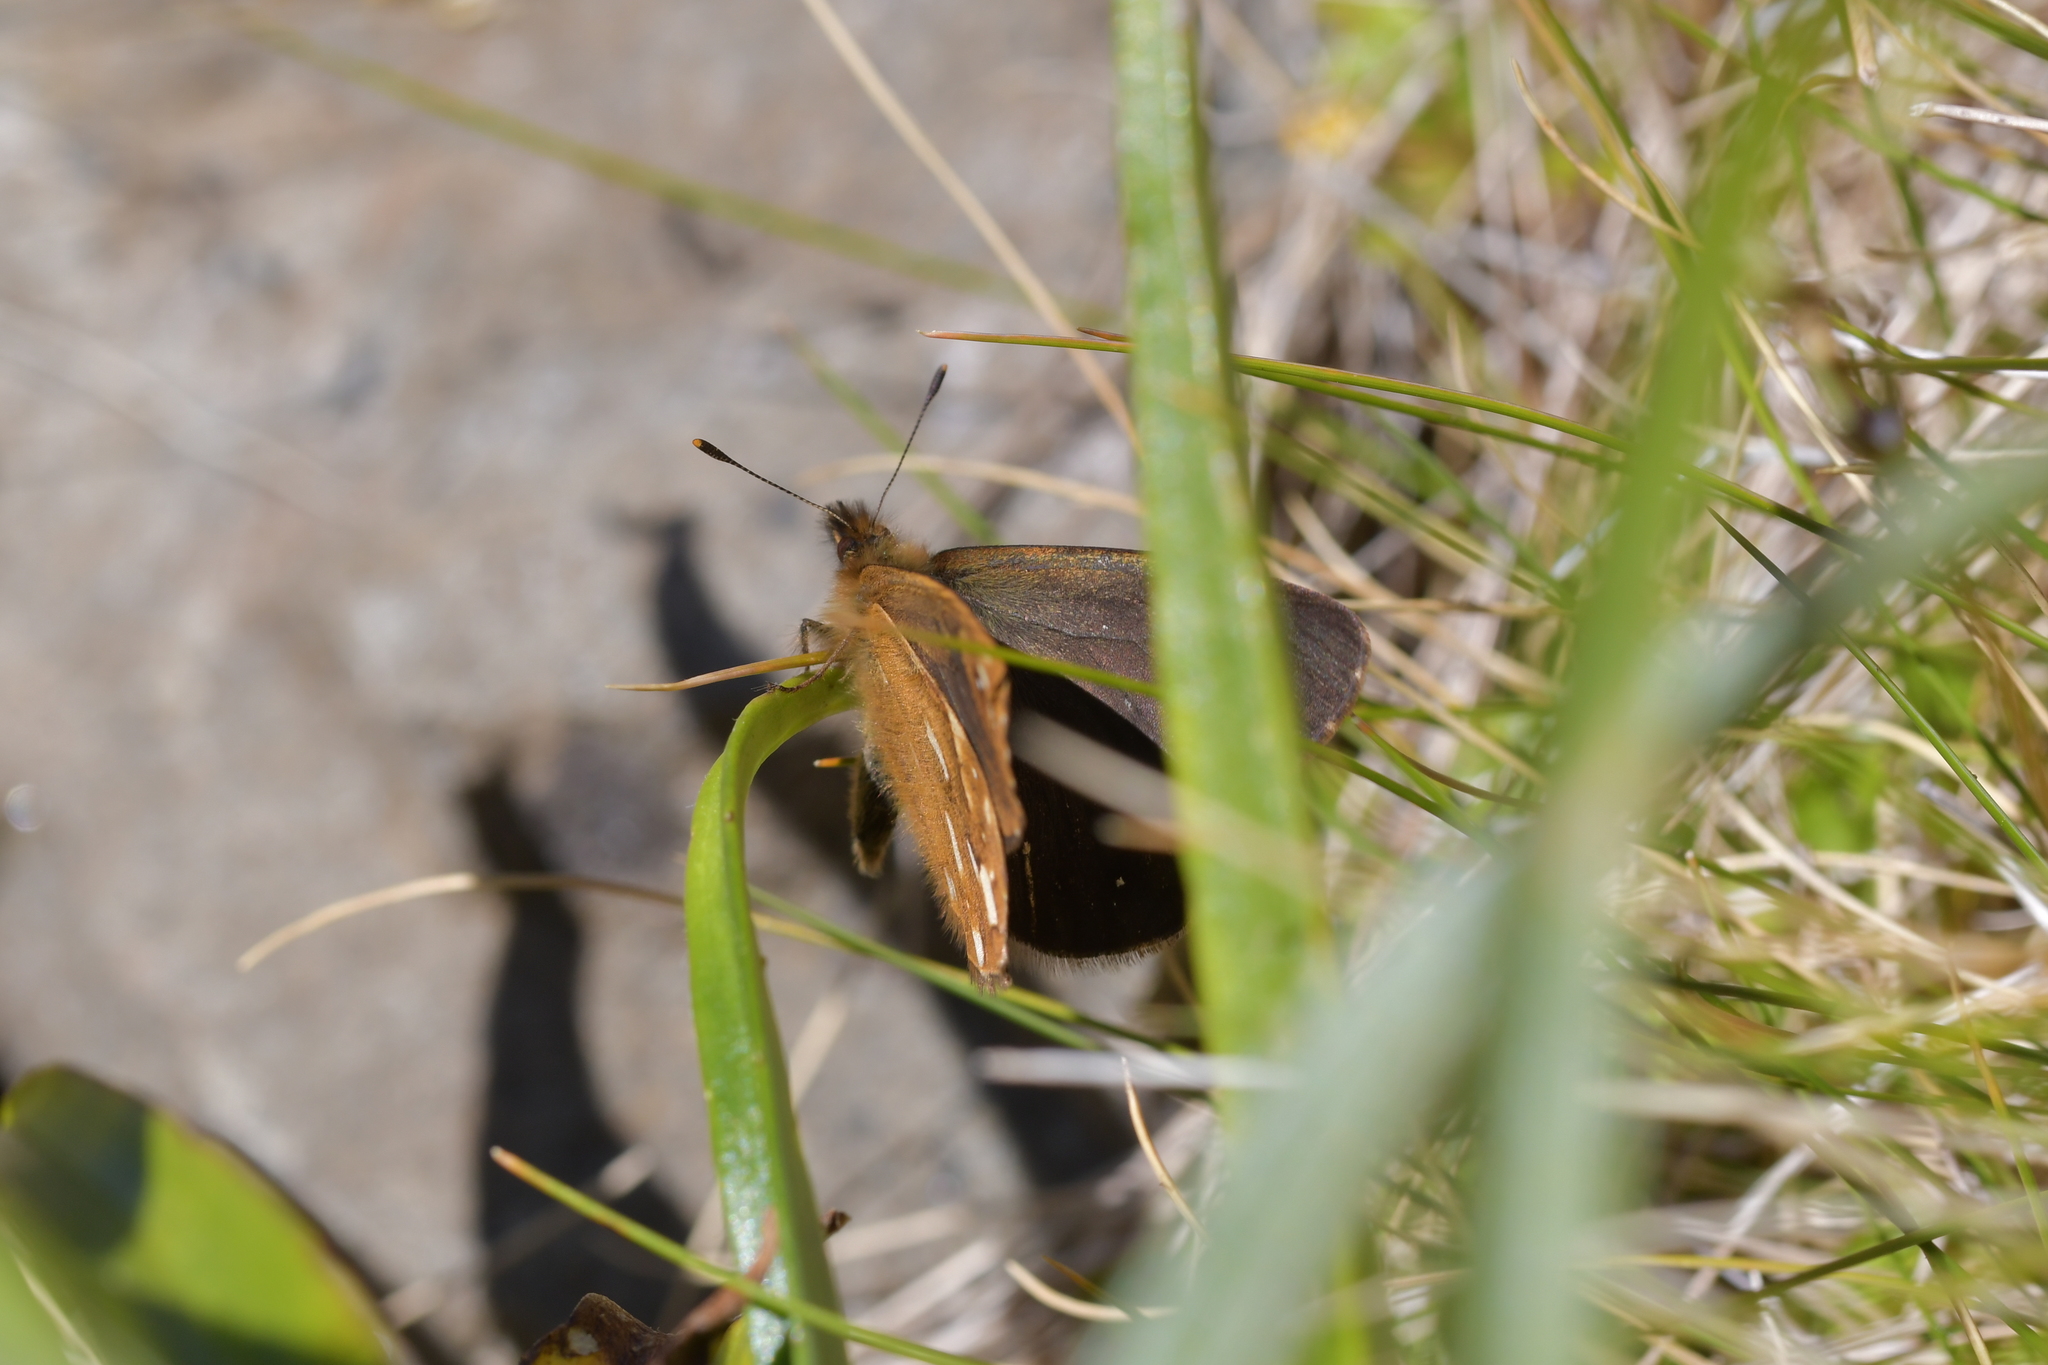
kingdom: Animalia
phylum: Arthropoda
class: Insecta
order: Lepidoptera
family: Nymphalidae
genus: Erebiola
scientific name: Erebiola butleri
